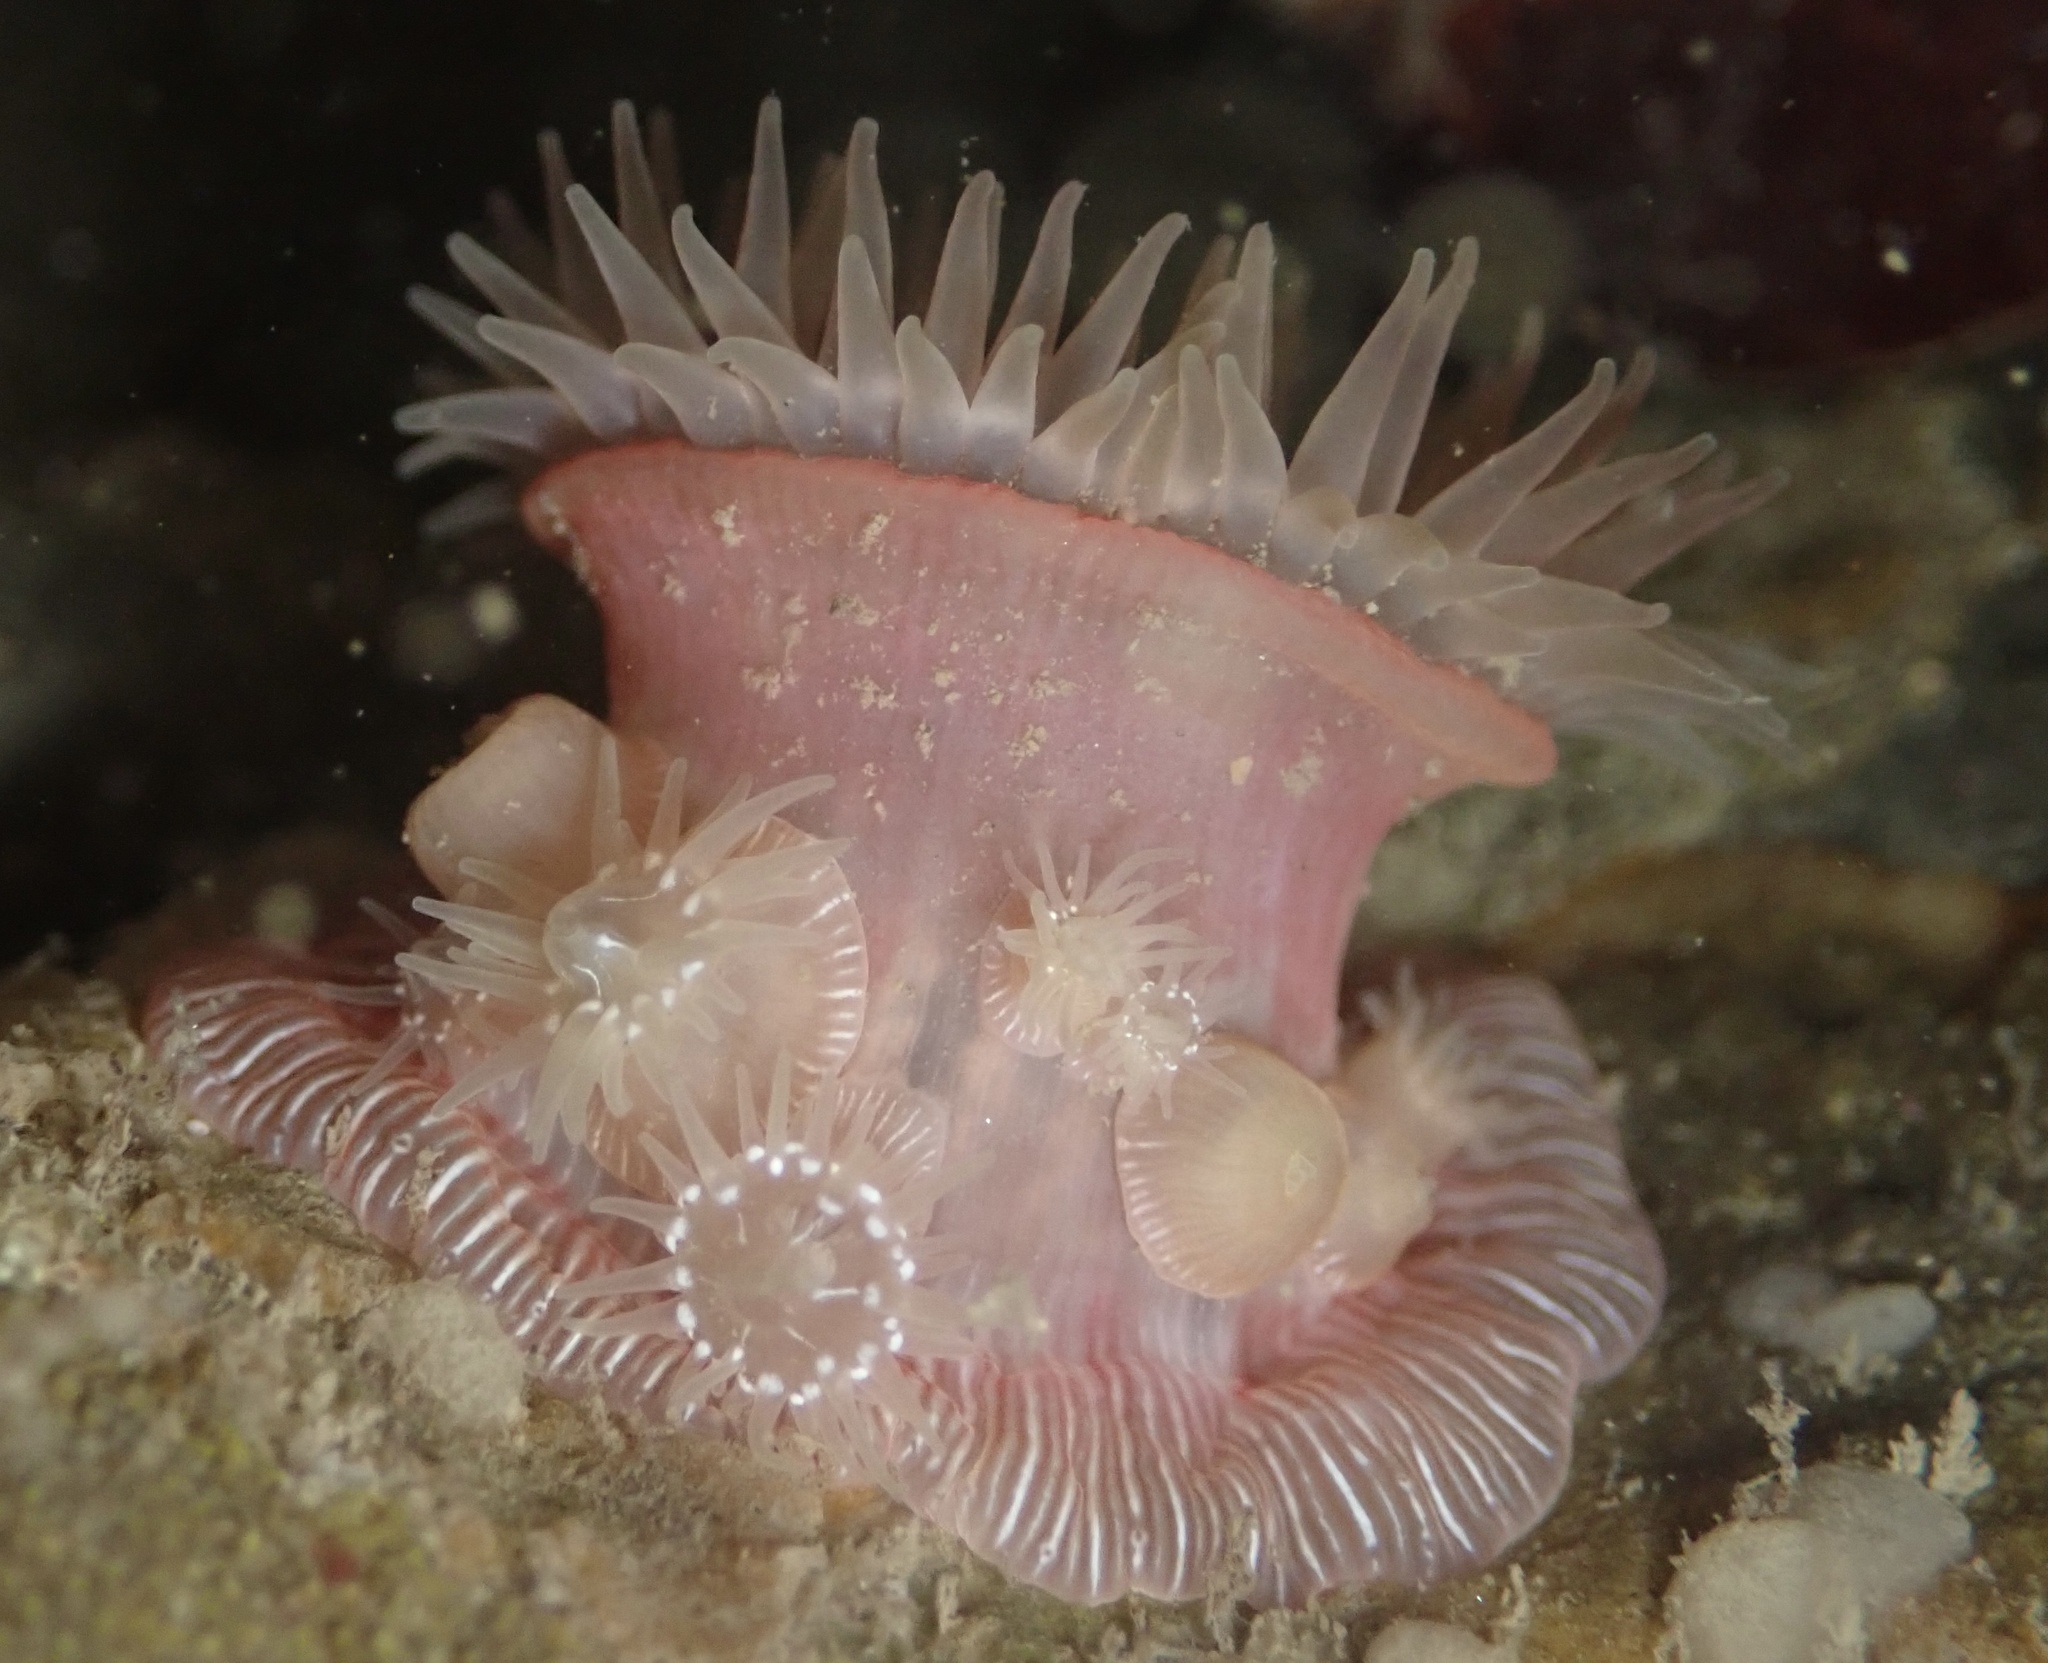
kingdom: Animalia
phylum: Cnidaria
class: Anthozoa
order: Actiniaria
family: Actiniidae
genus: Epiactis
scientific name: Epiactis prolifera
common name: Brooding anemone
